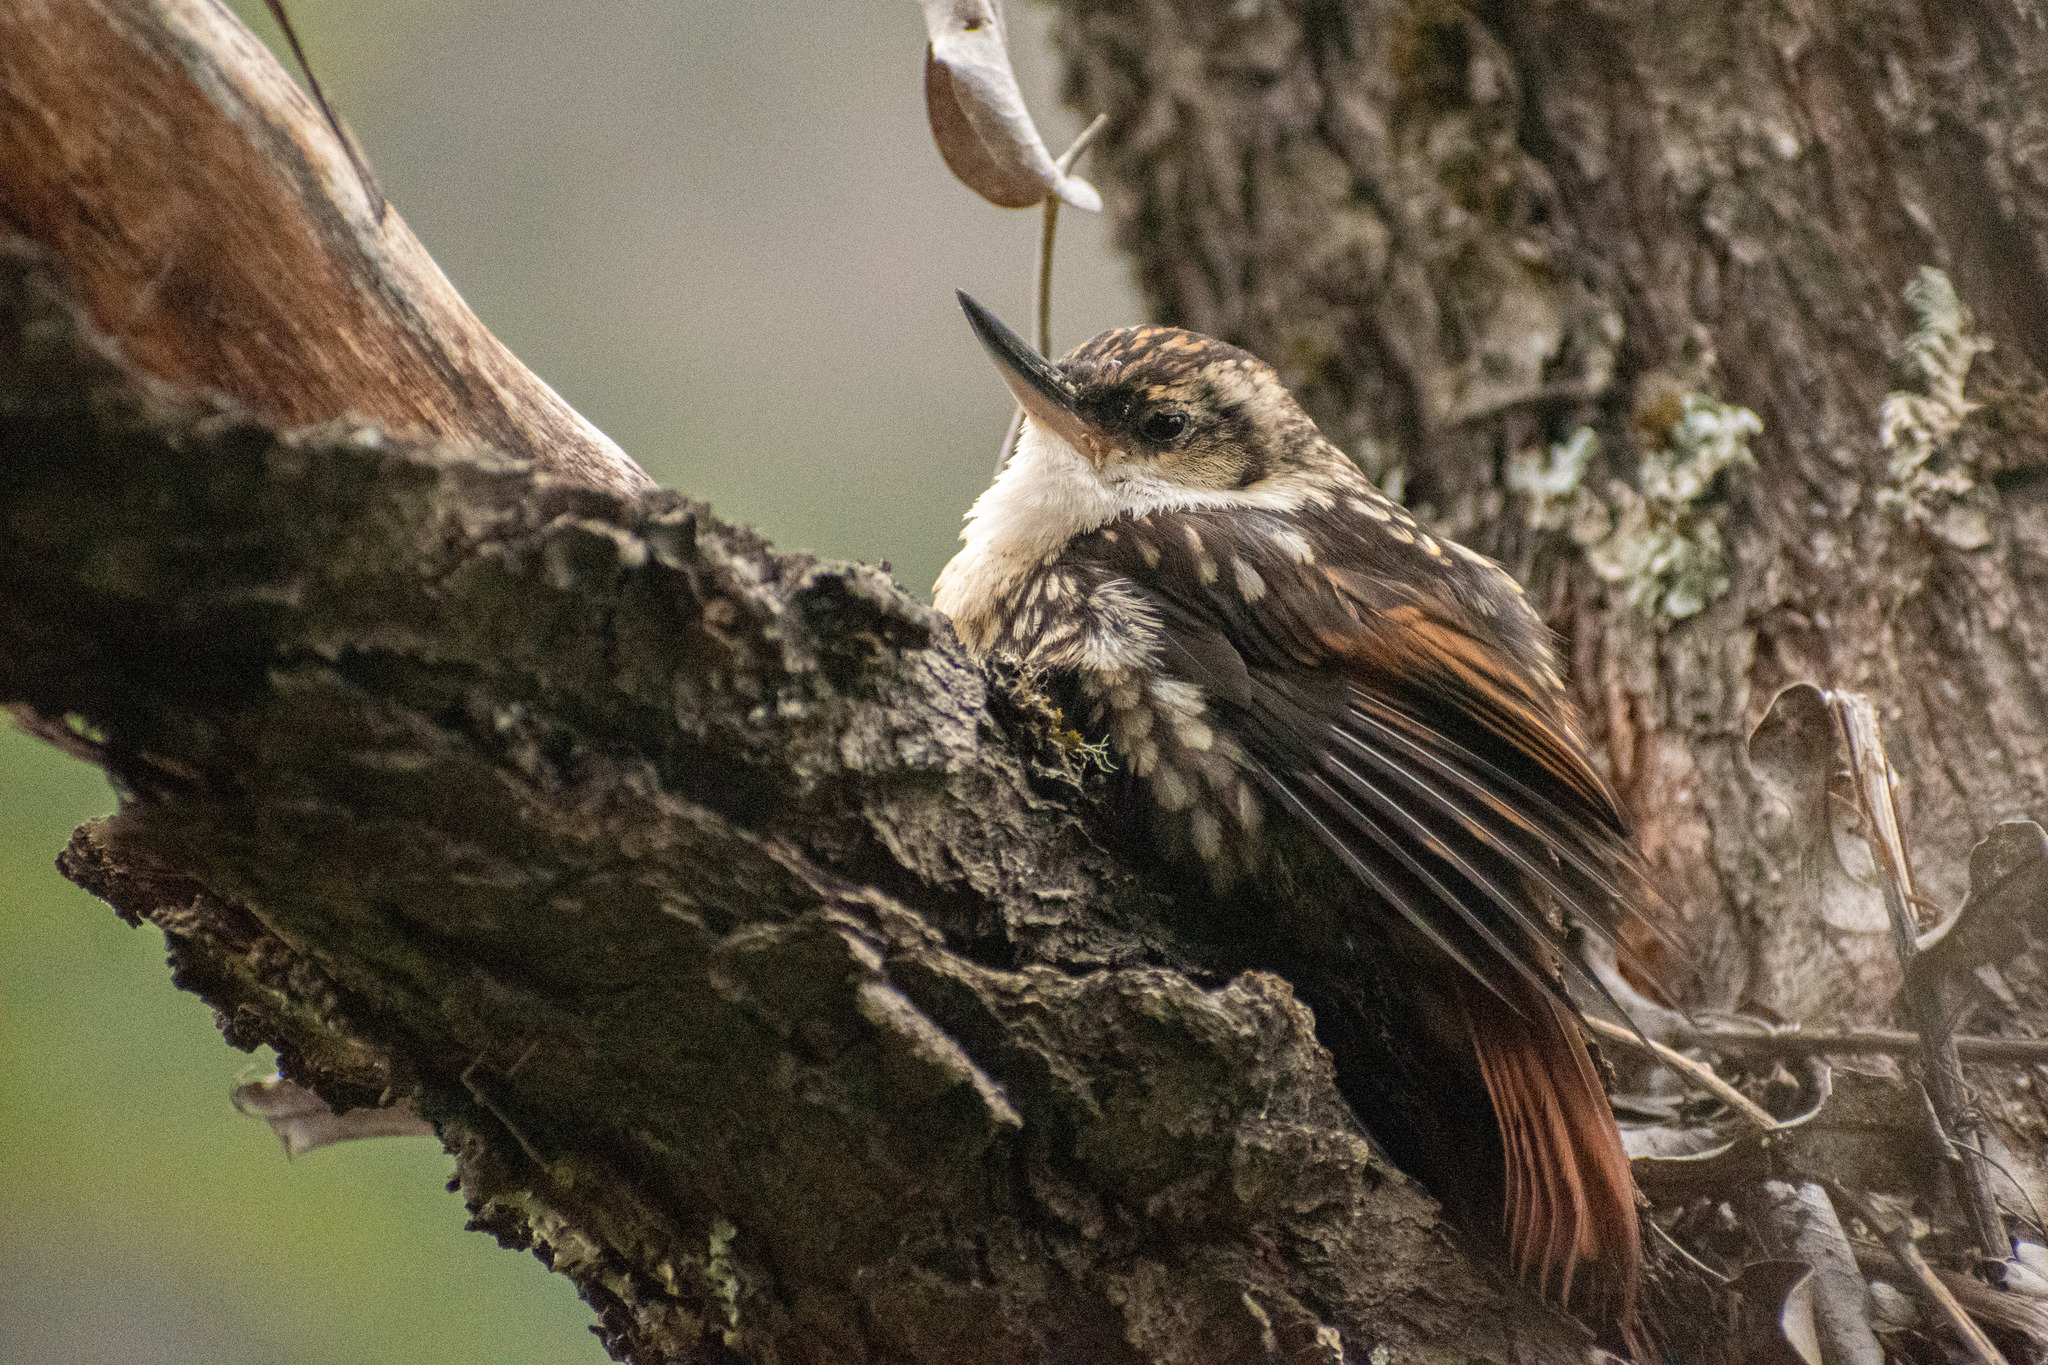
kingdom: Animalia
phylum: Chordata
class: Aves
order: Passeriformes
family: Furnariidae
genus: Pygarrhichas
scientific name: Pygarrhichas albogularis
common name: White-throated treerunner
